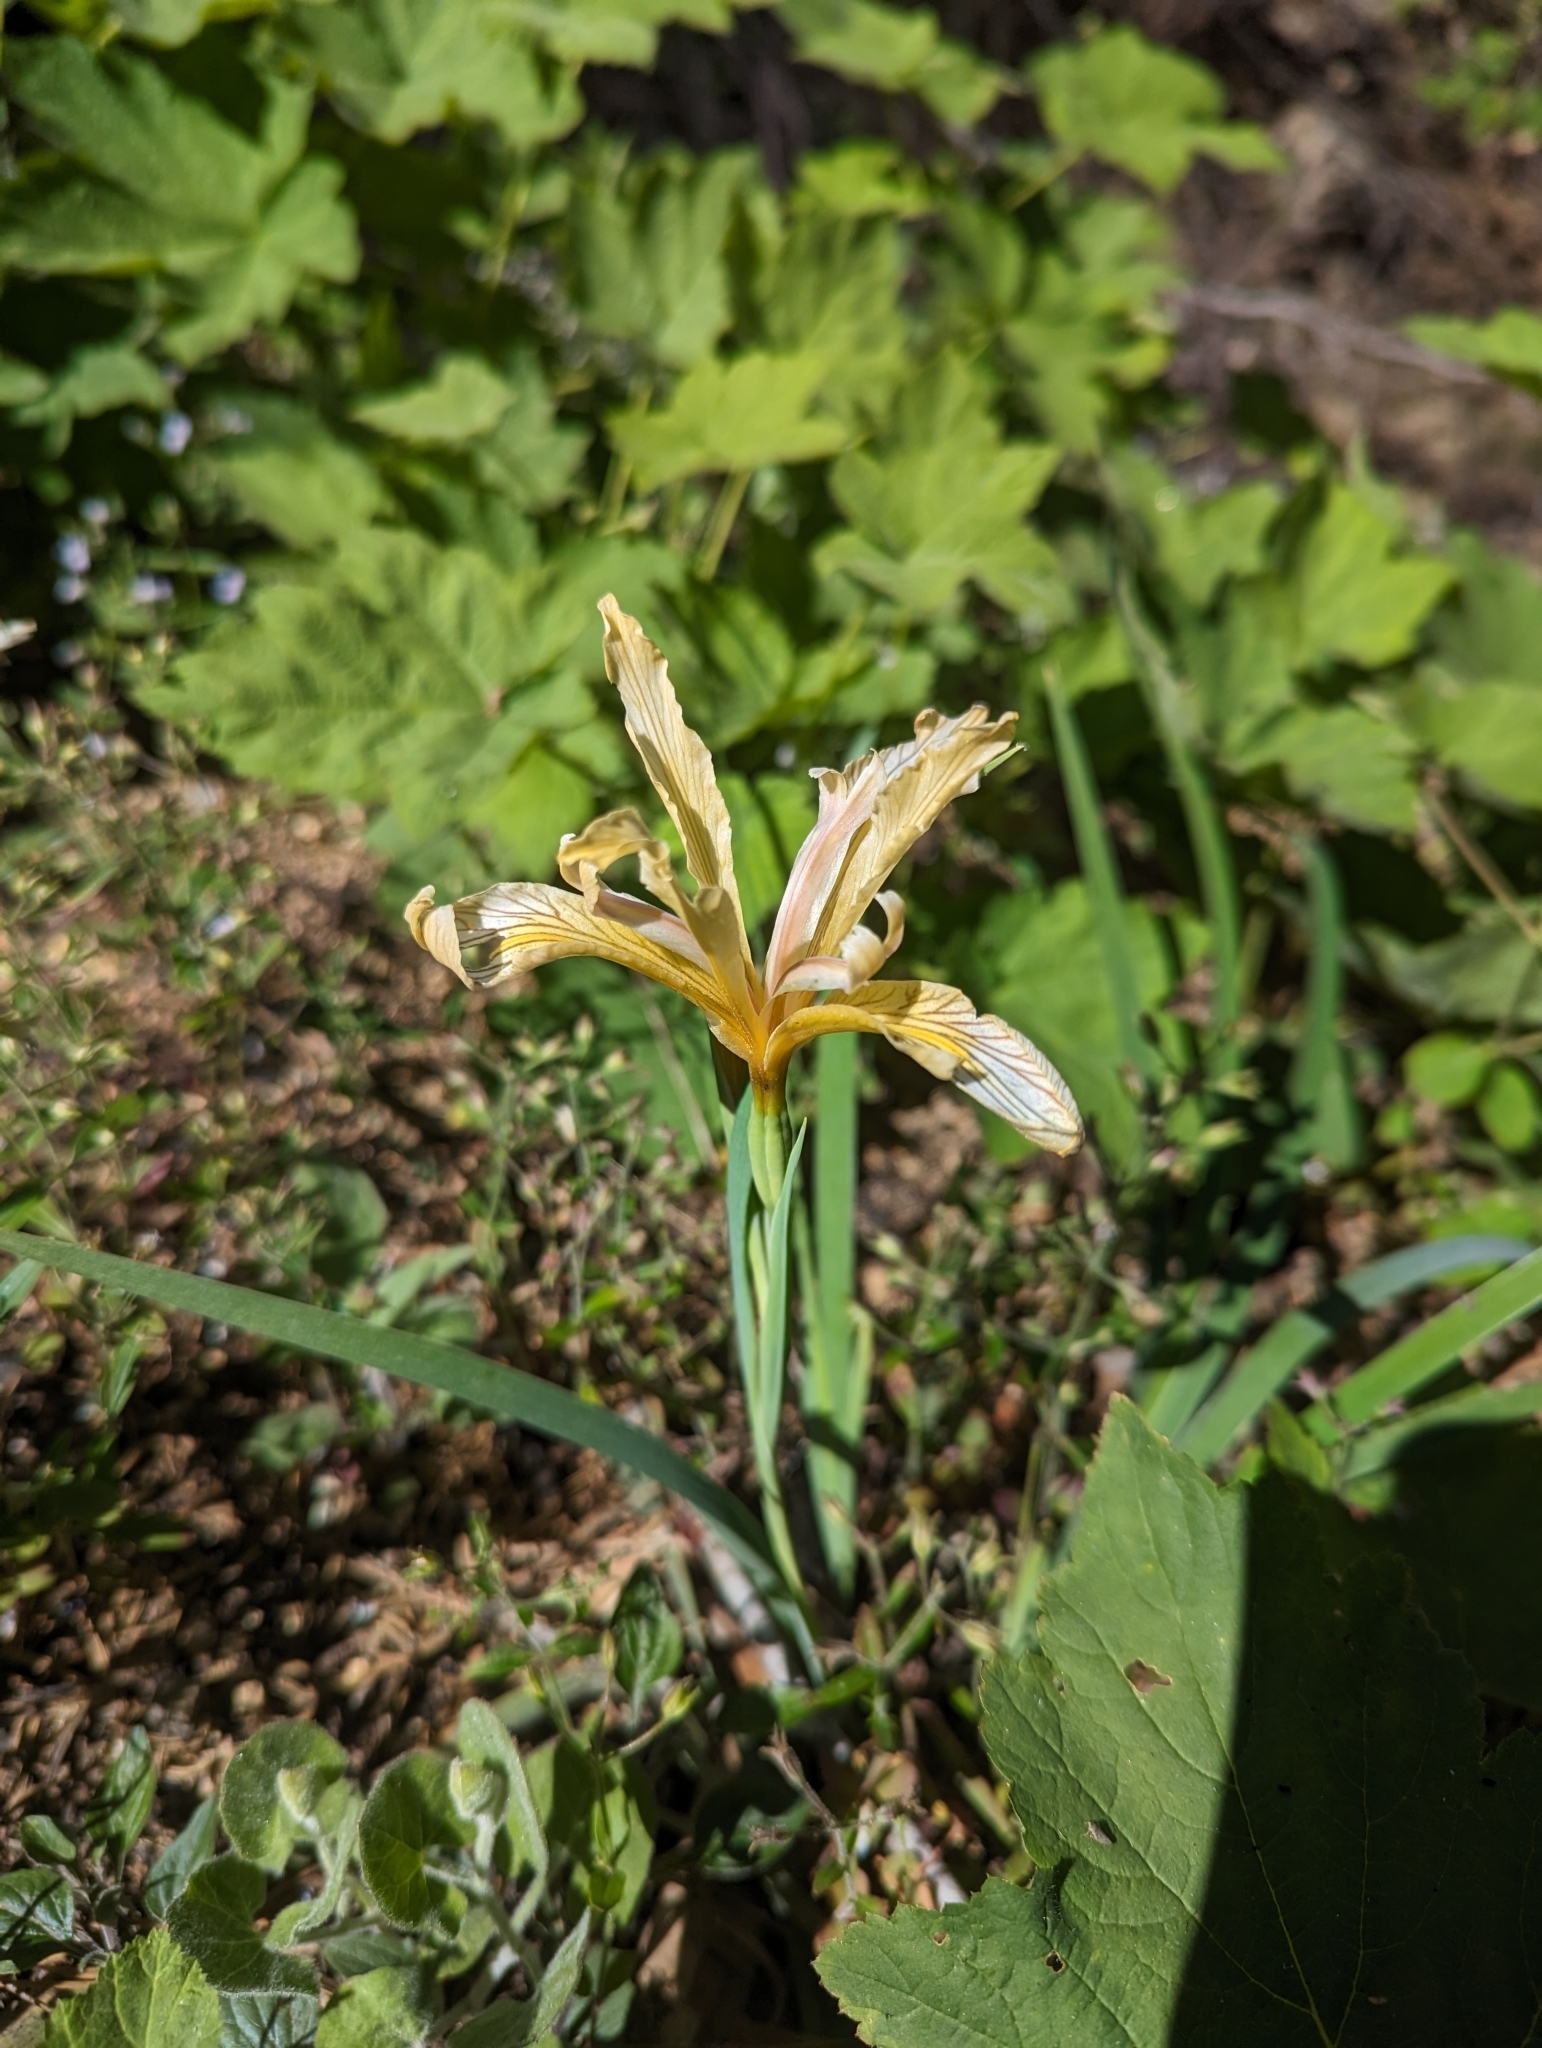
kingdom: Plantae
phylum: Tracheophyta
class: Liliopsida
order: Asparagales
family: Iridaceae
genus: Iris
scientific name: Iris hartwegii
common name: Sierra iris
